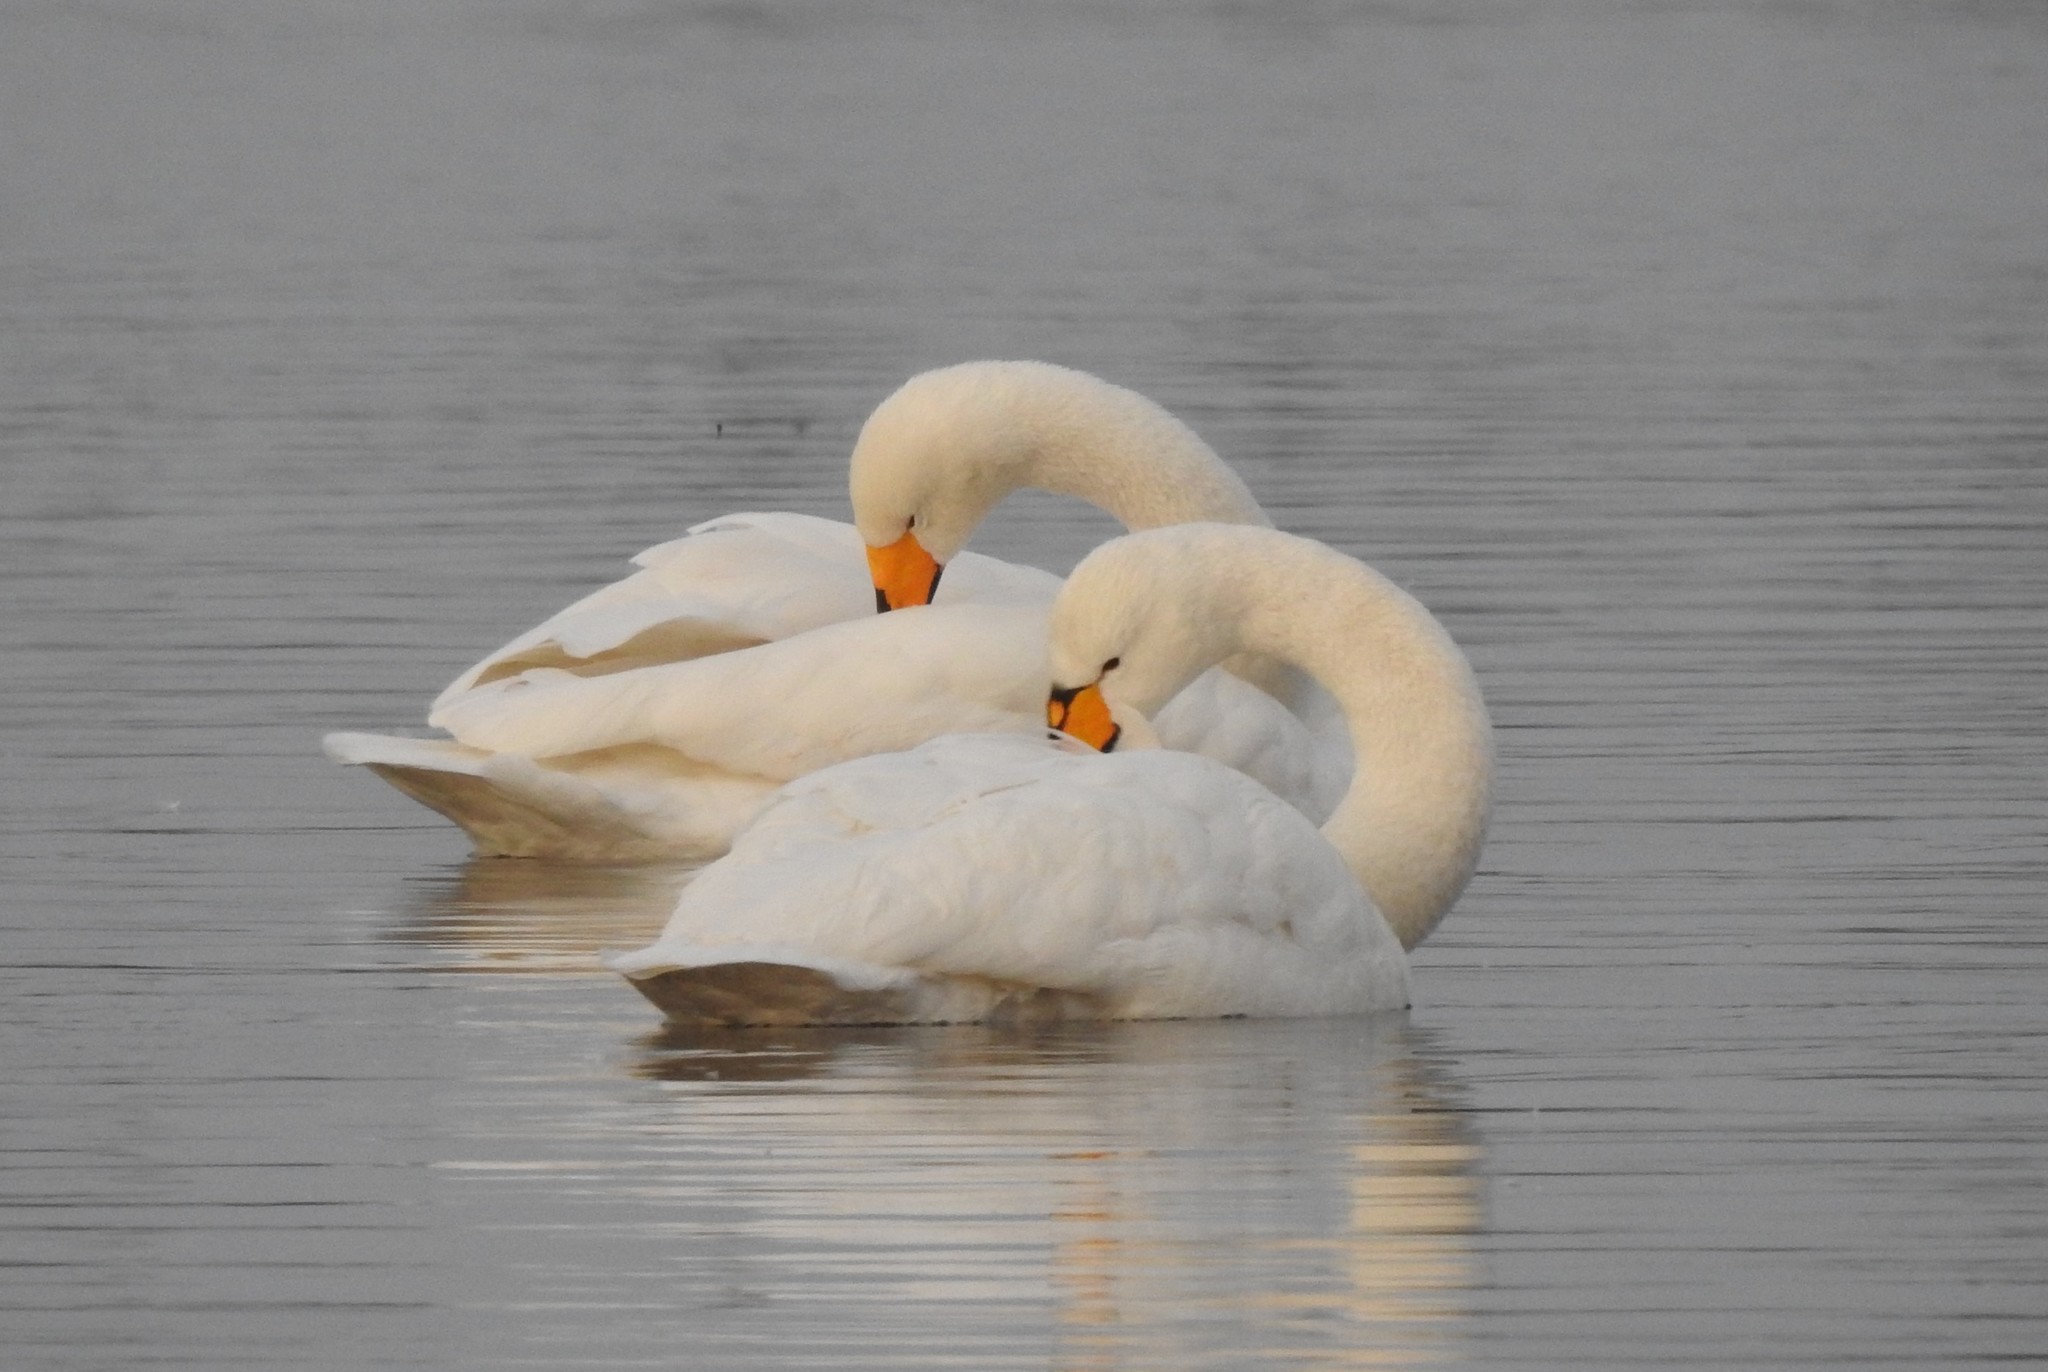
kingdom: Animalia
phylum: Chordata
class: Aves
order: Anseriformes
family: Anatidae
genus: Cygnus
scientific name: Cygnus cygnus
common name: Whooper swan
